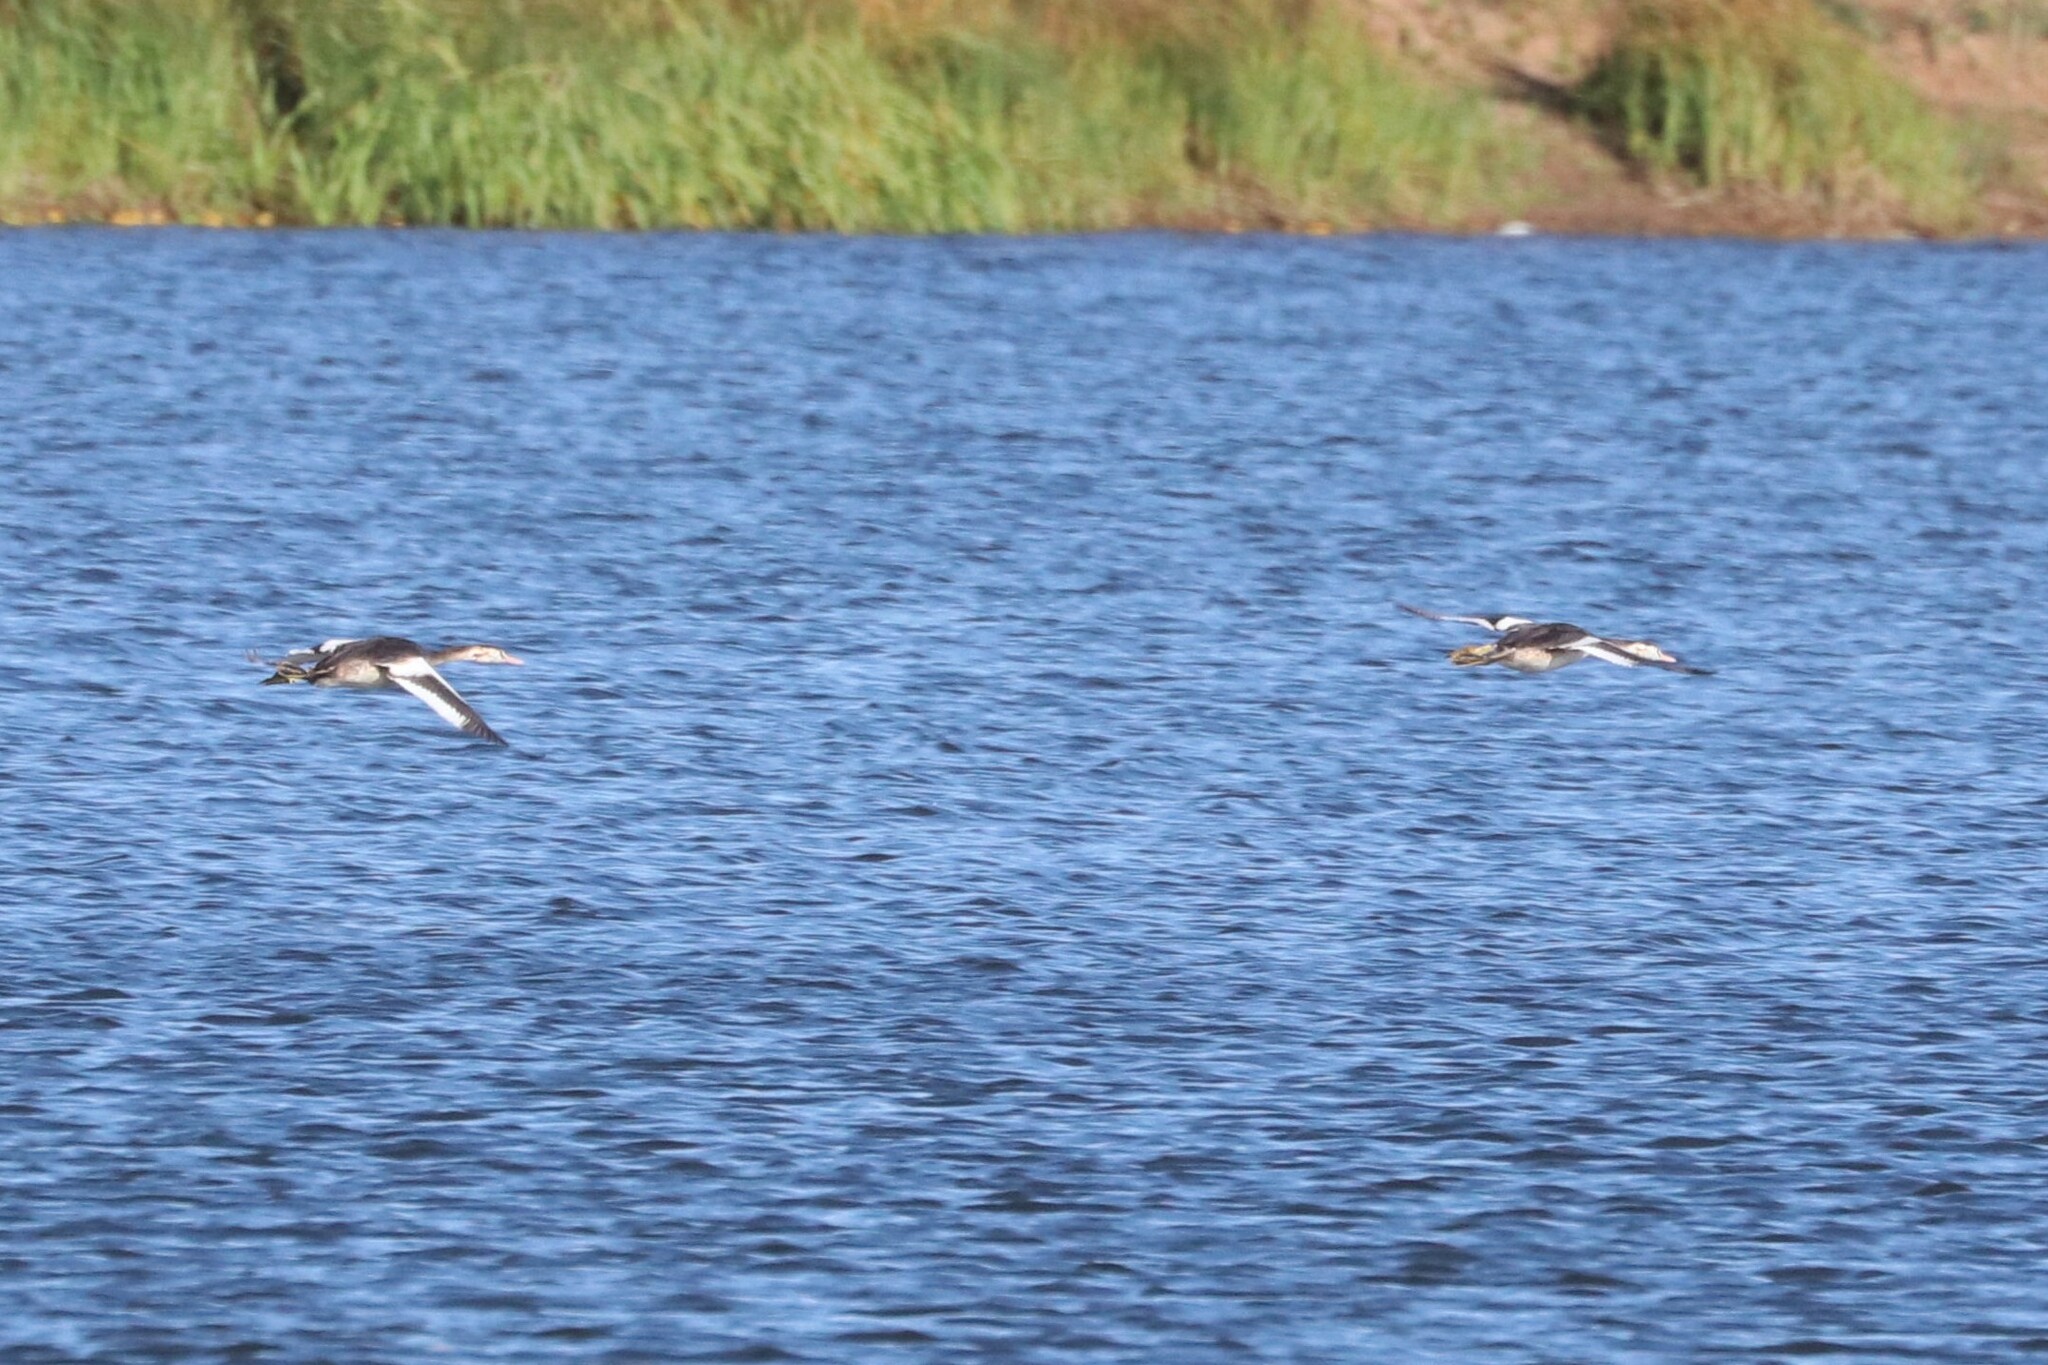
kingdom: Animalia
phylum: Chordata
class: Aves
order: Podicipediformes
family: Podicipedidae
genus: Podiceps
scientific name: Podiceps cristatus
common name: Great crested grebe
